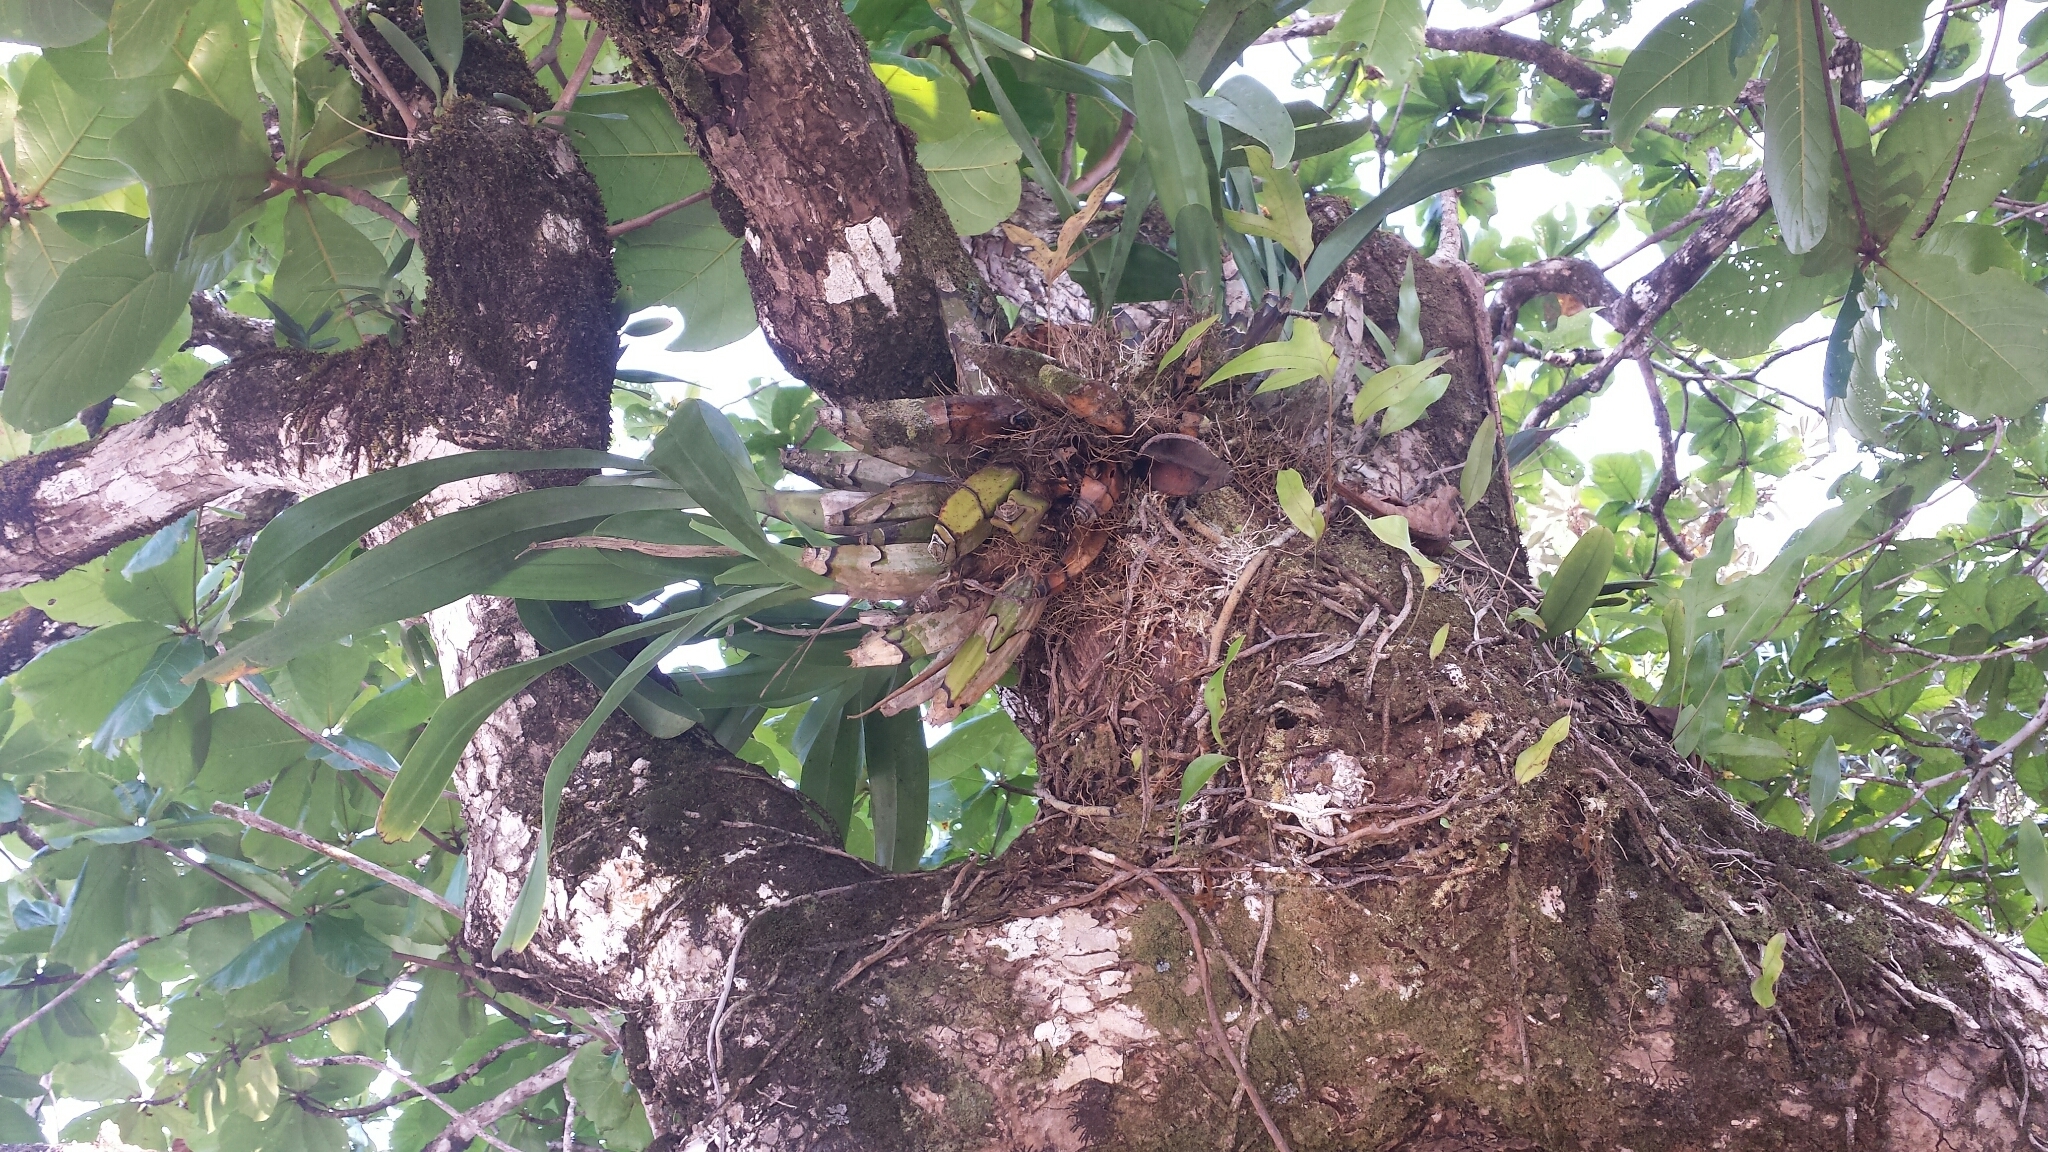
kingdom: Plantae
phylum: Tracheophyta
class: Liliopsida
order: Asparagales
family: Orchidaceae
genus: Grammangis
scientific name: Grammangis ellisii
